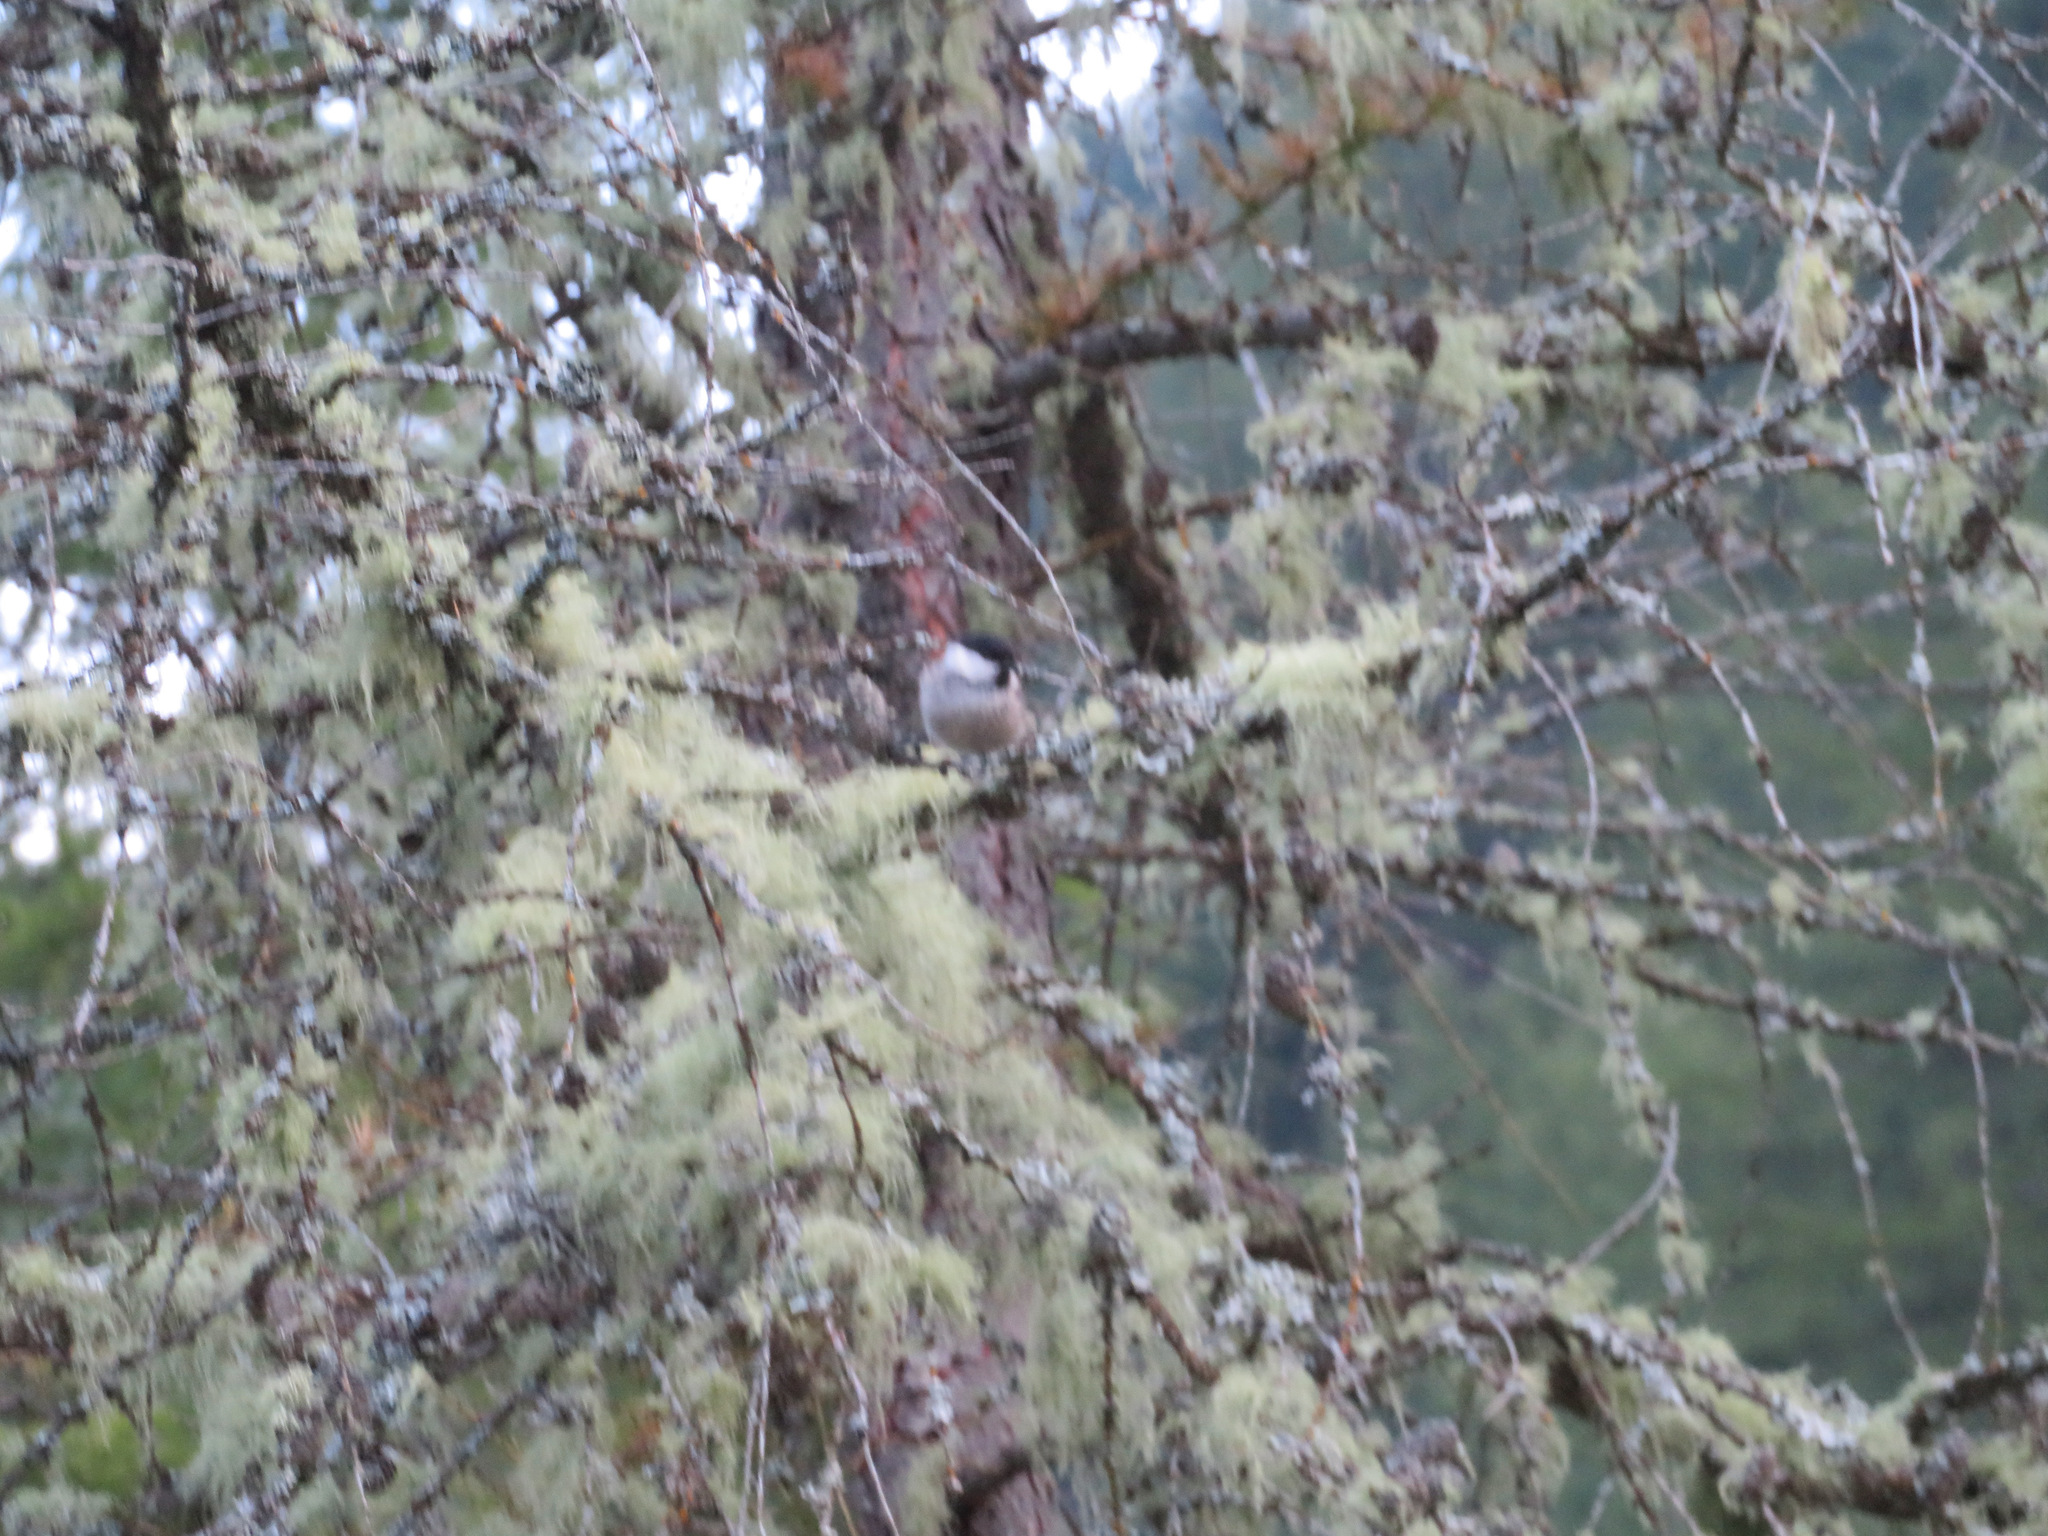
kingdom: Animalia
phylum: Chordata
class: Aves
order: Passeriformes
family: Paridae
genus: Poecile
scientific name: Poecile montanus
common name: Willow tit
